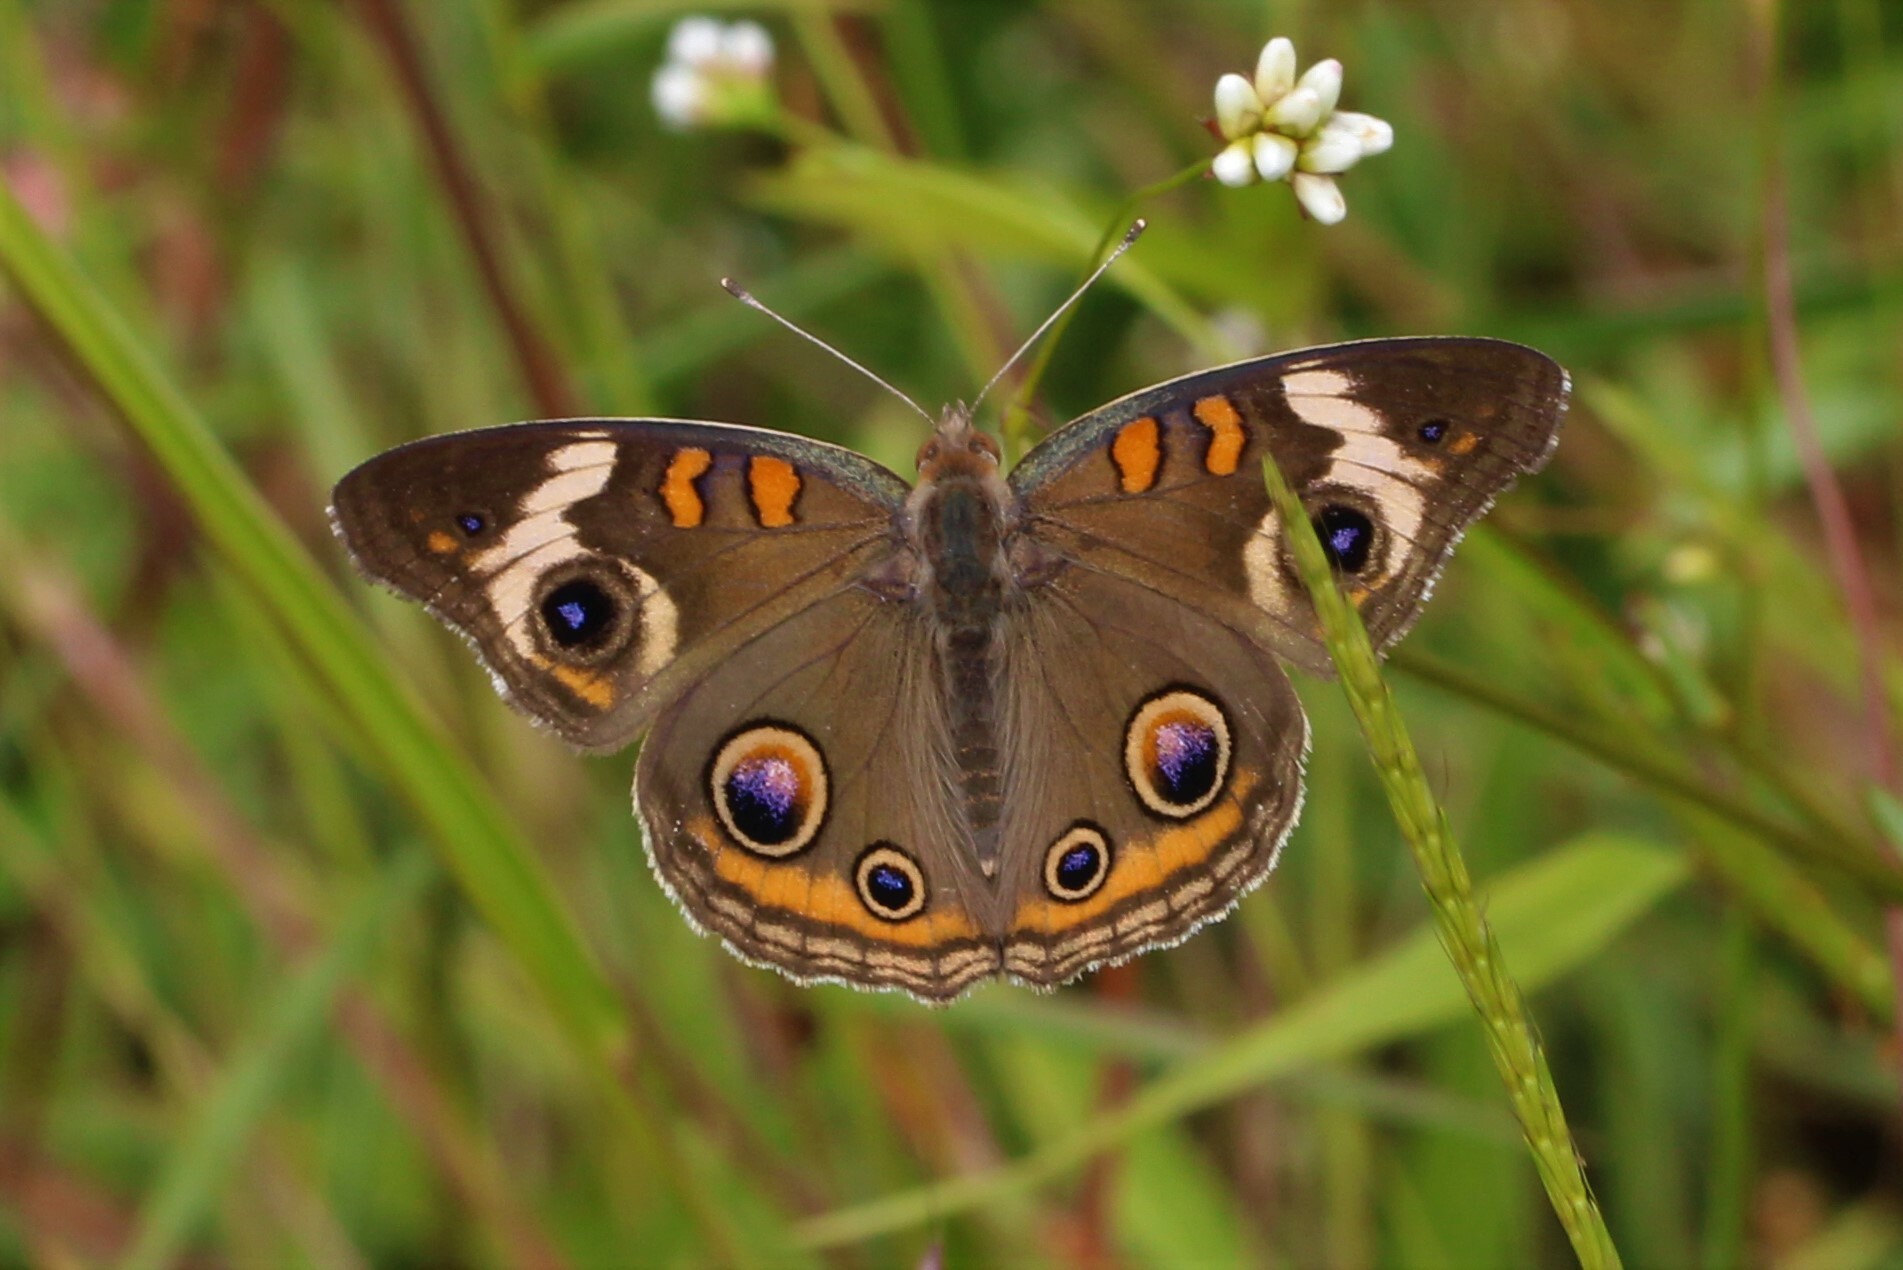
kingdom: Animalia
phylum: Arthropoda
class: Insecta
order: Lepidoptera
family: Nymphalidae
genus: Junonia
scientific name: Junonia coenia
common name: Common buckeye
